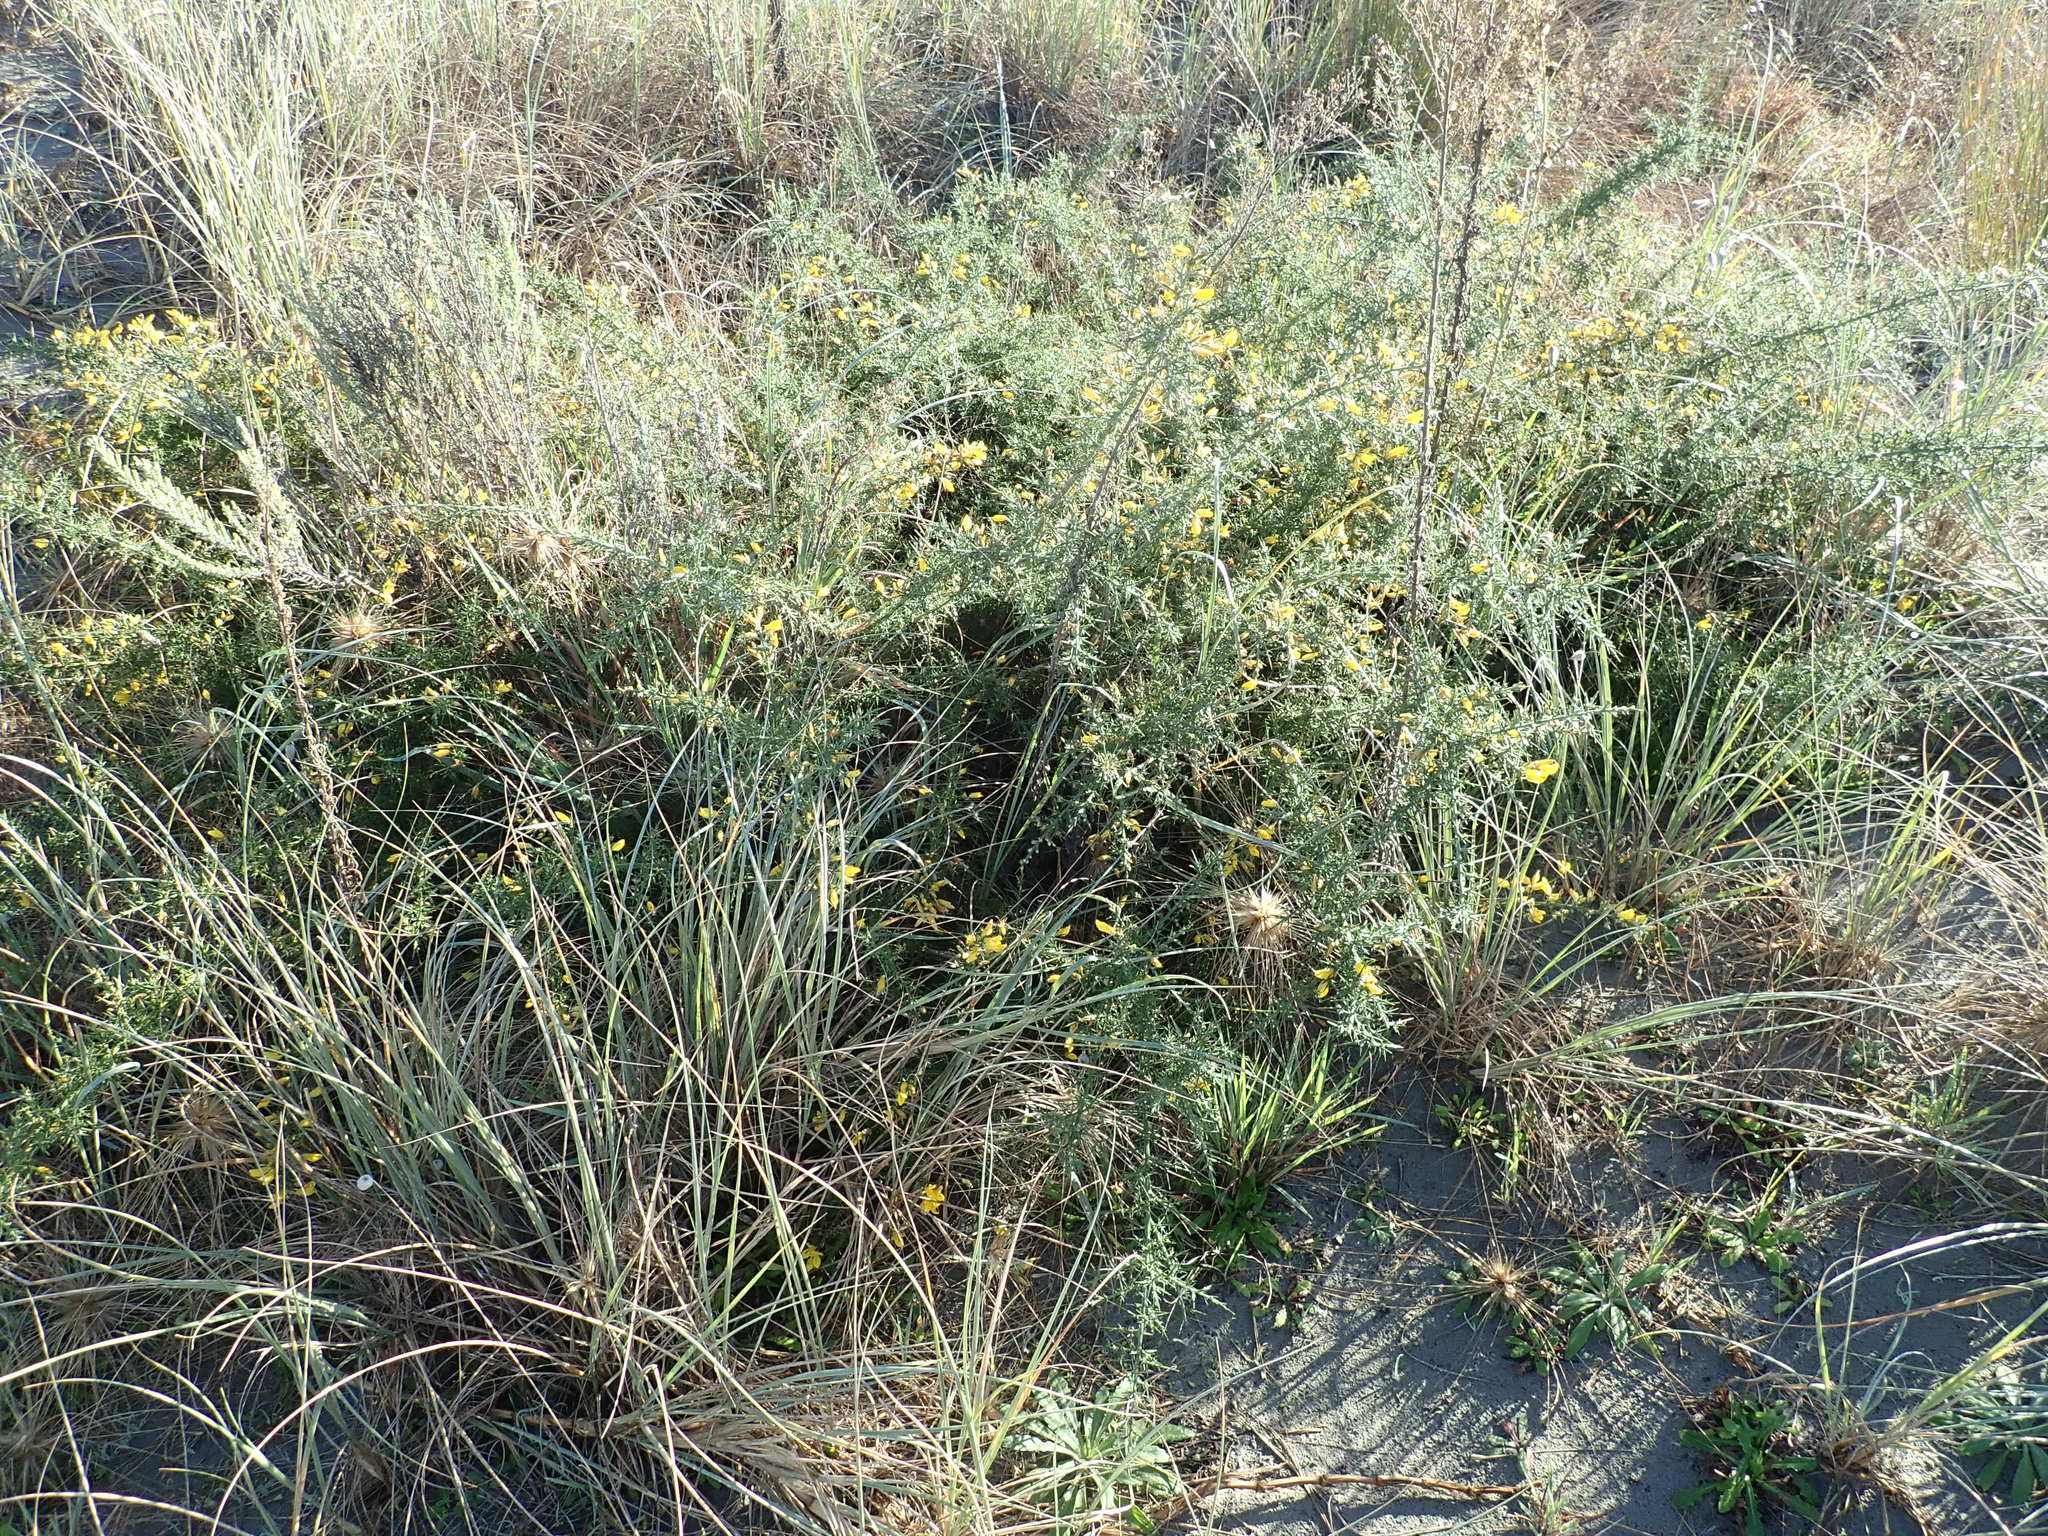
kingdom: Plantae
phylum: Tracheophyta
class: Magnoliopsida
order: Fabales
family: Fabaceae
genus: Ulex
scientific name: Ulex europaeus
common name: Common gorse
